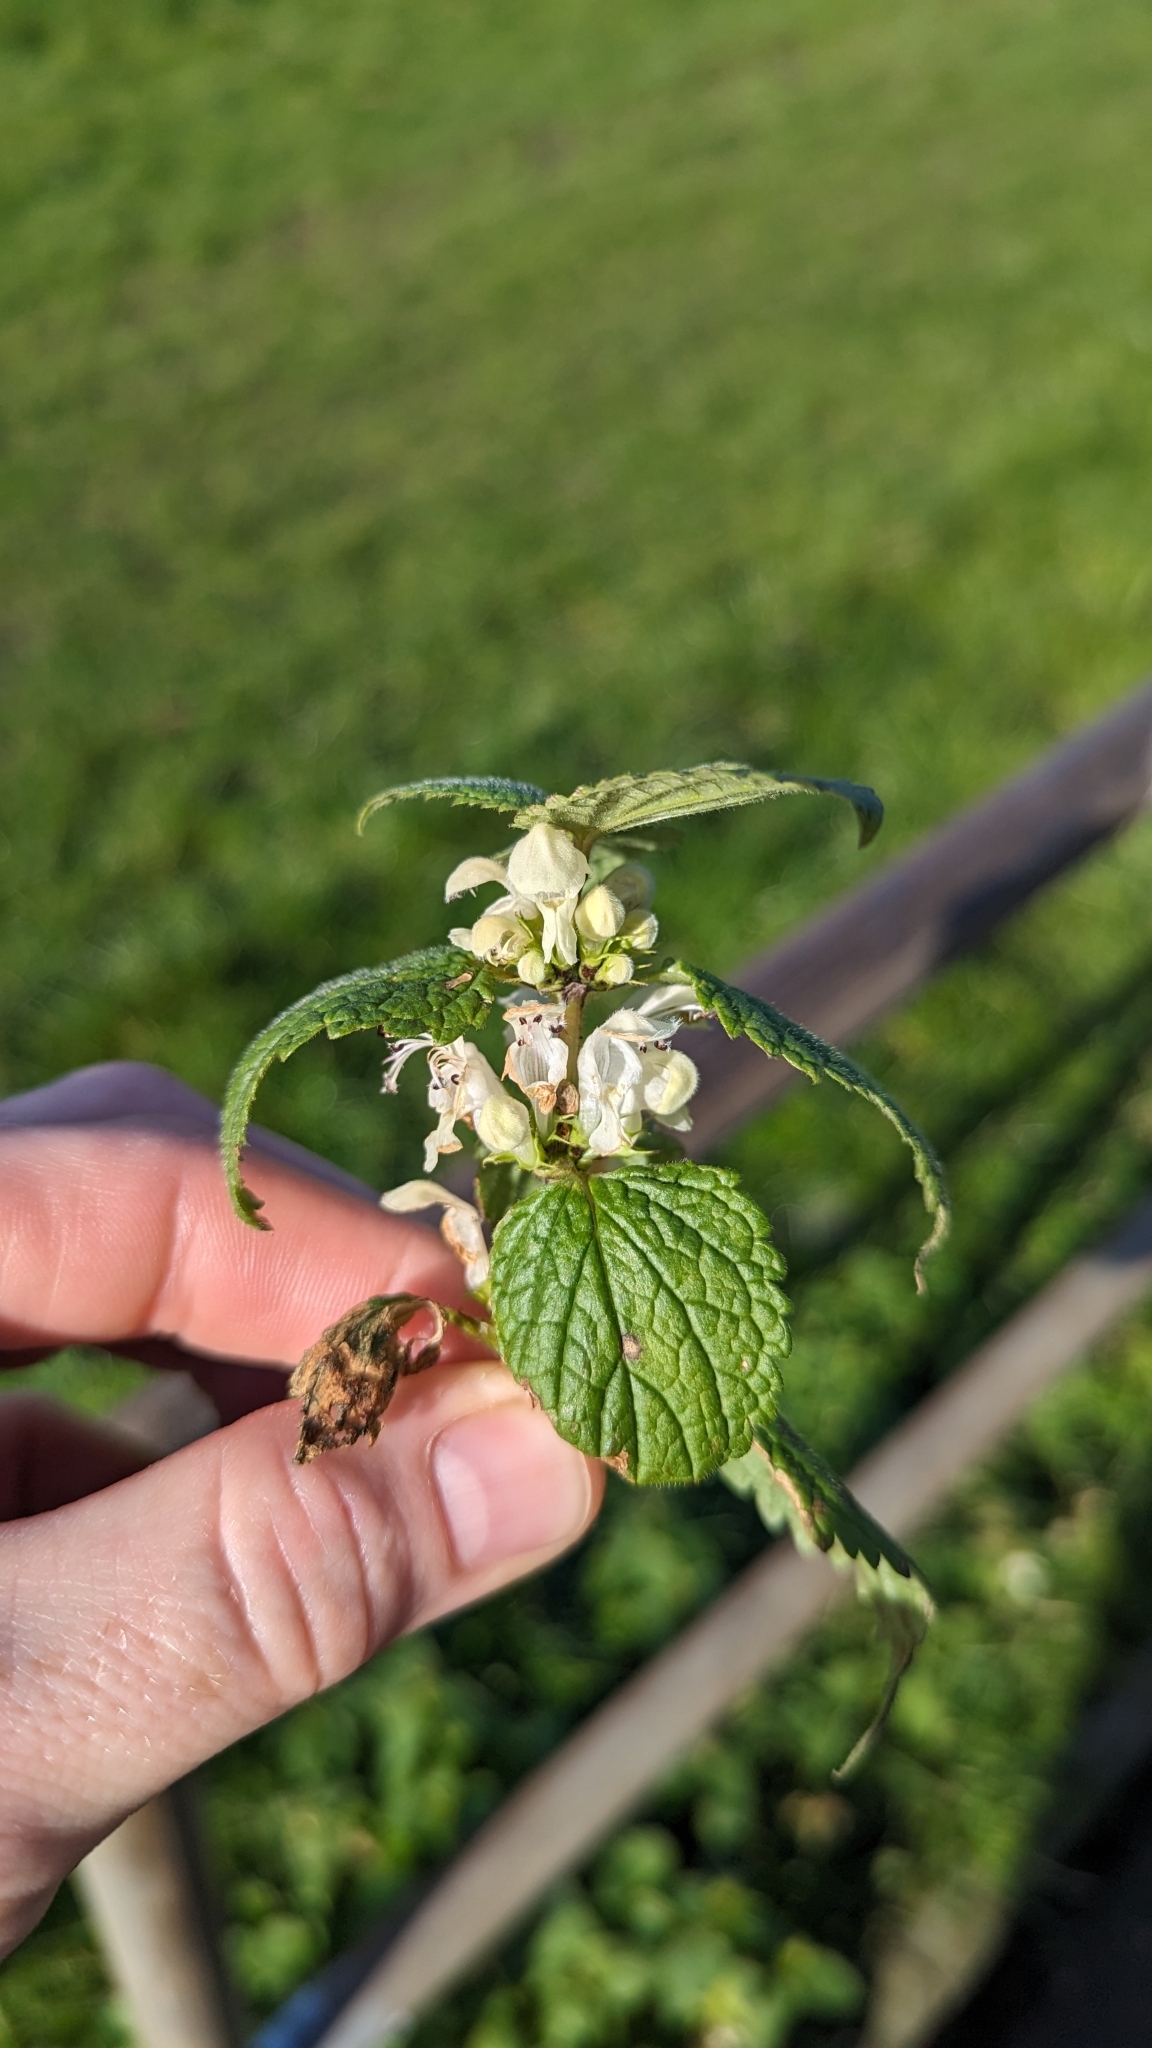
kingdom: Plantae
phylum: Tracheophyta
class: Magnoliopsida
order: Lamiales
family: Lamiaceae
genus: Lamium
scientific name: Lamium album
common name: White dead-nettle
